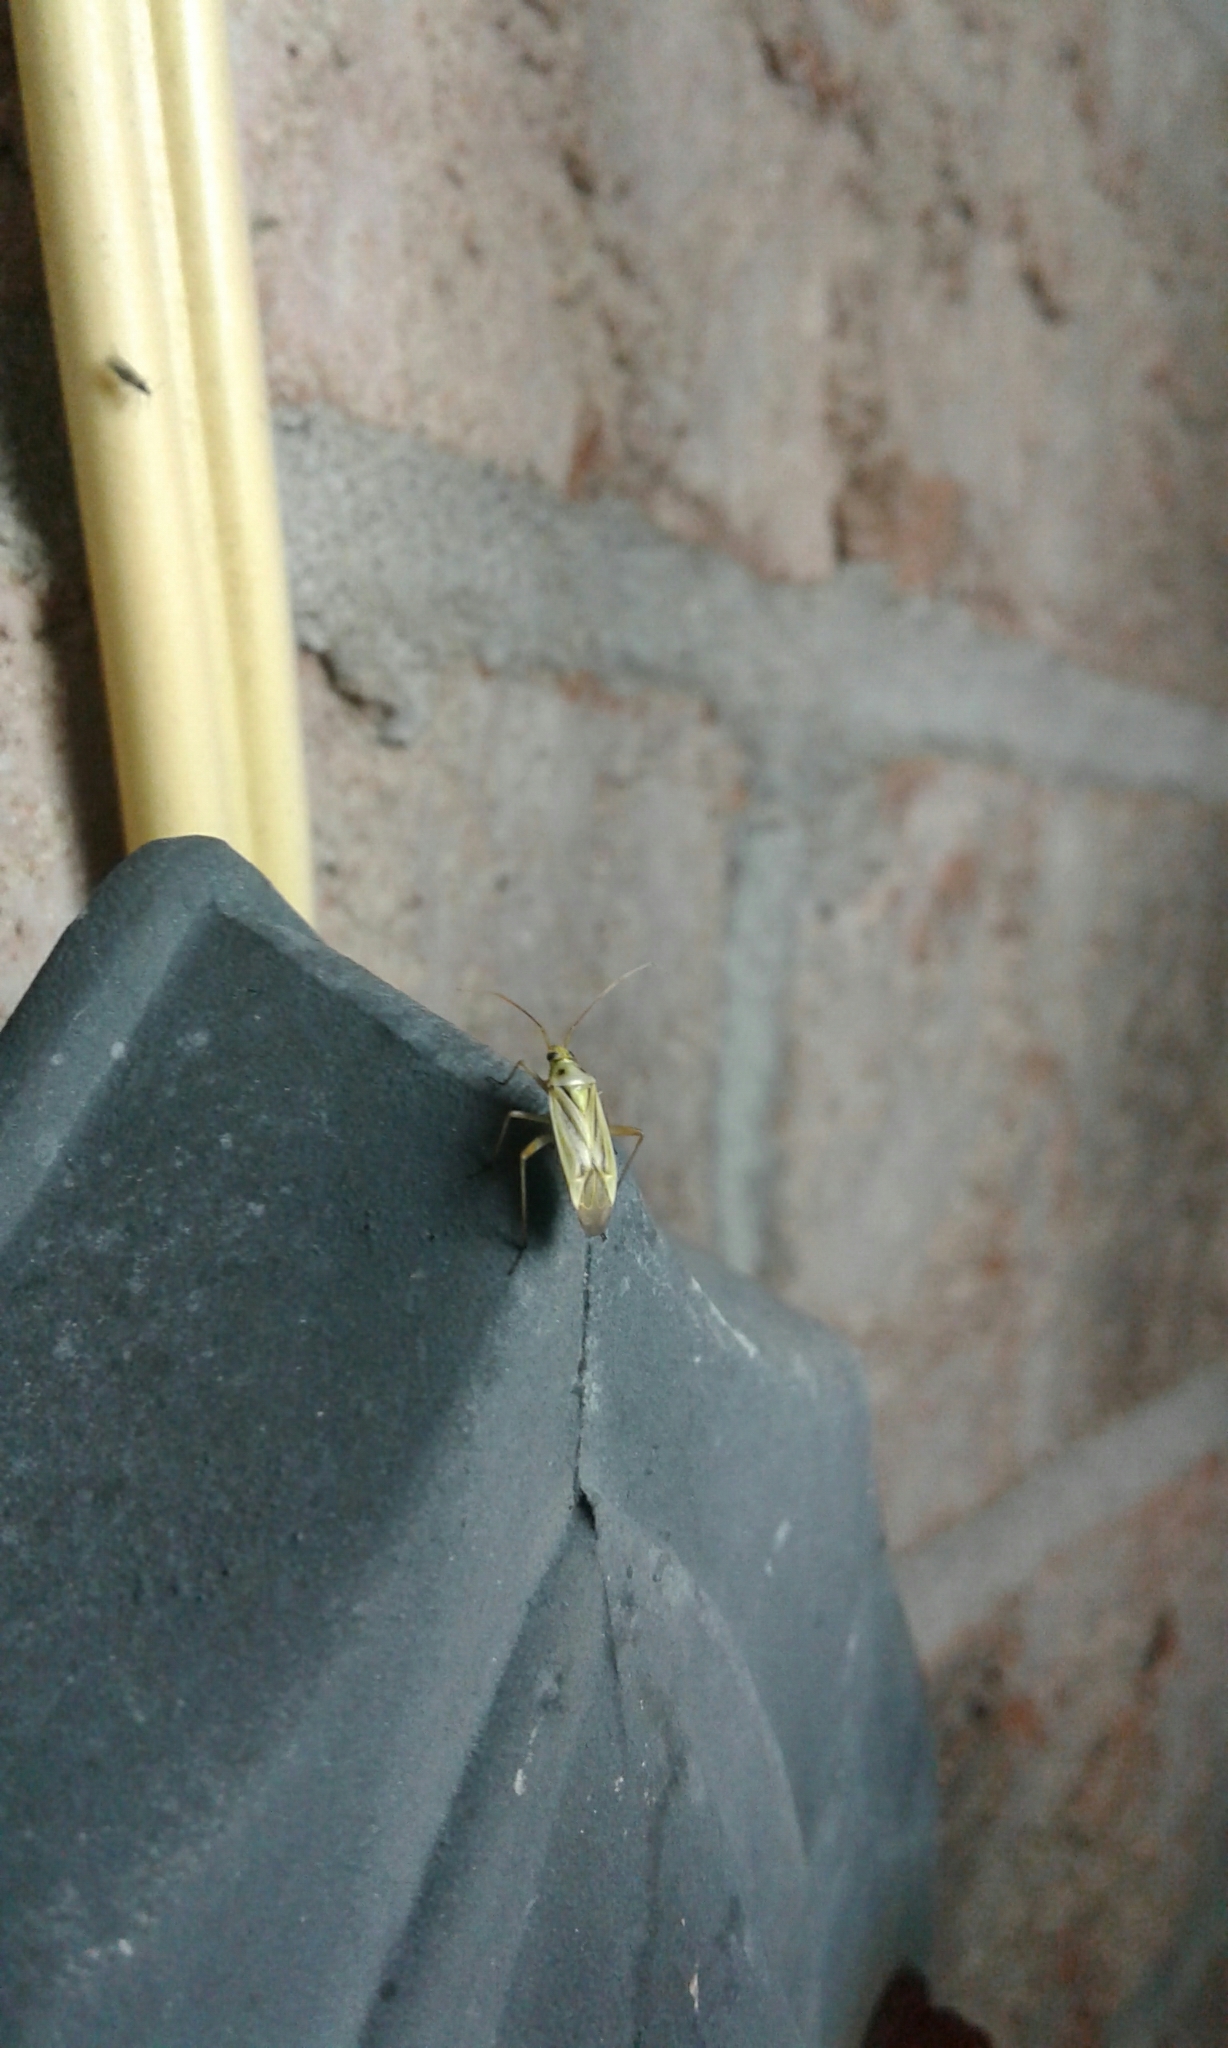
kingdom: Animalia
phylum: Arthropoda
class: Insecta
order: Hemiptera
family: Miridae
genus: Stenotus
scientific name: Stenotus binotatus
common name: Plant bug
